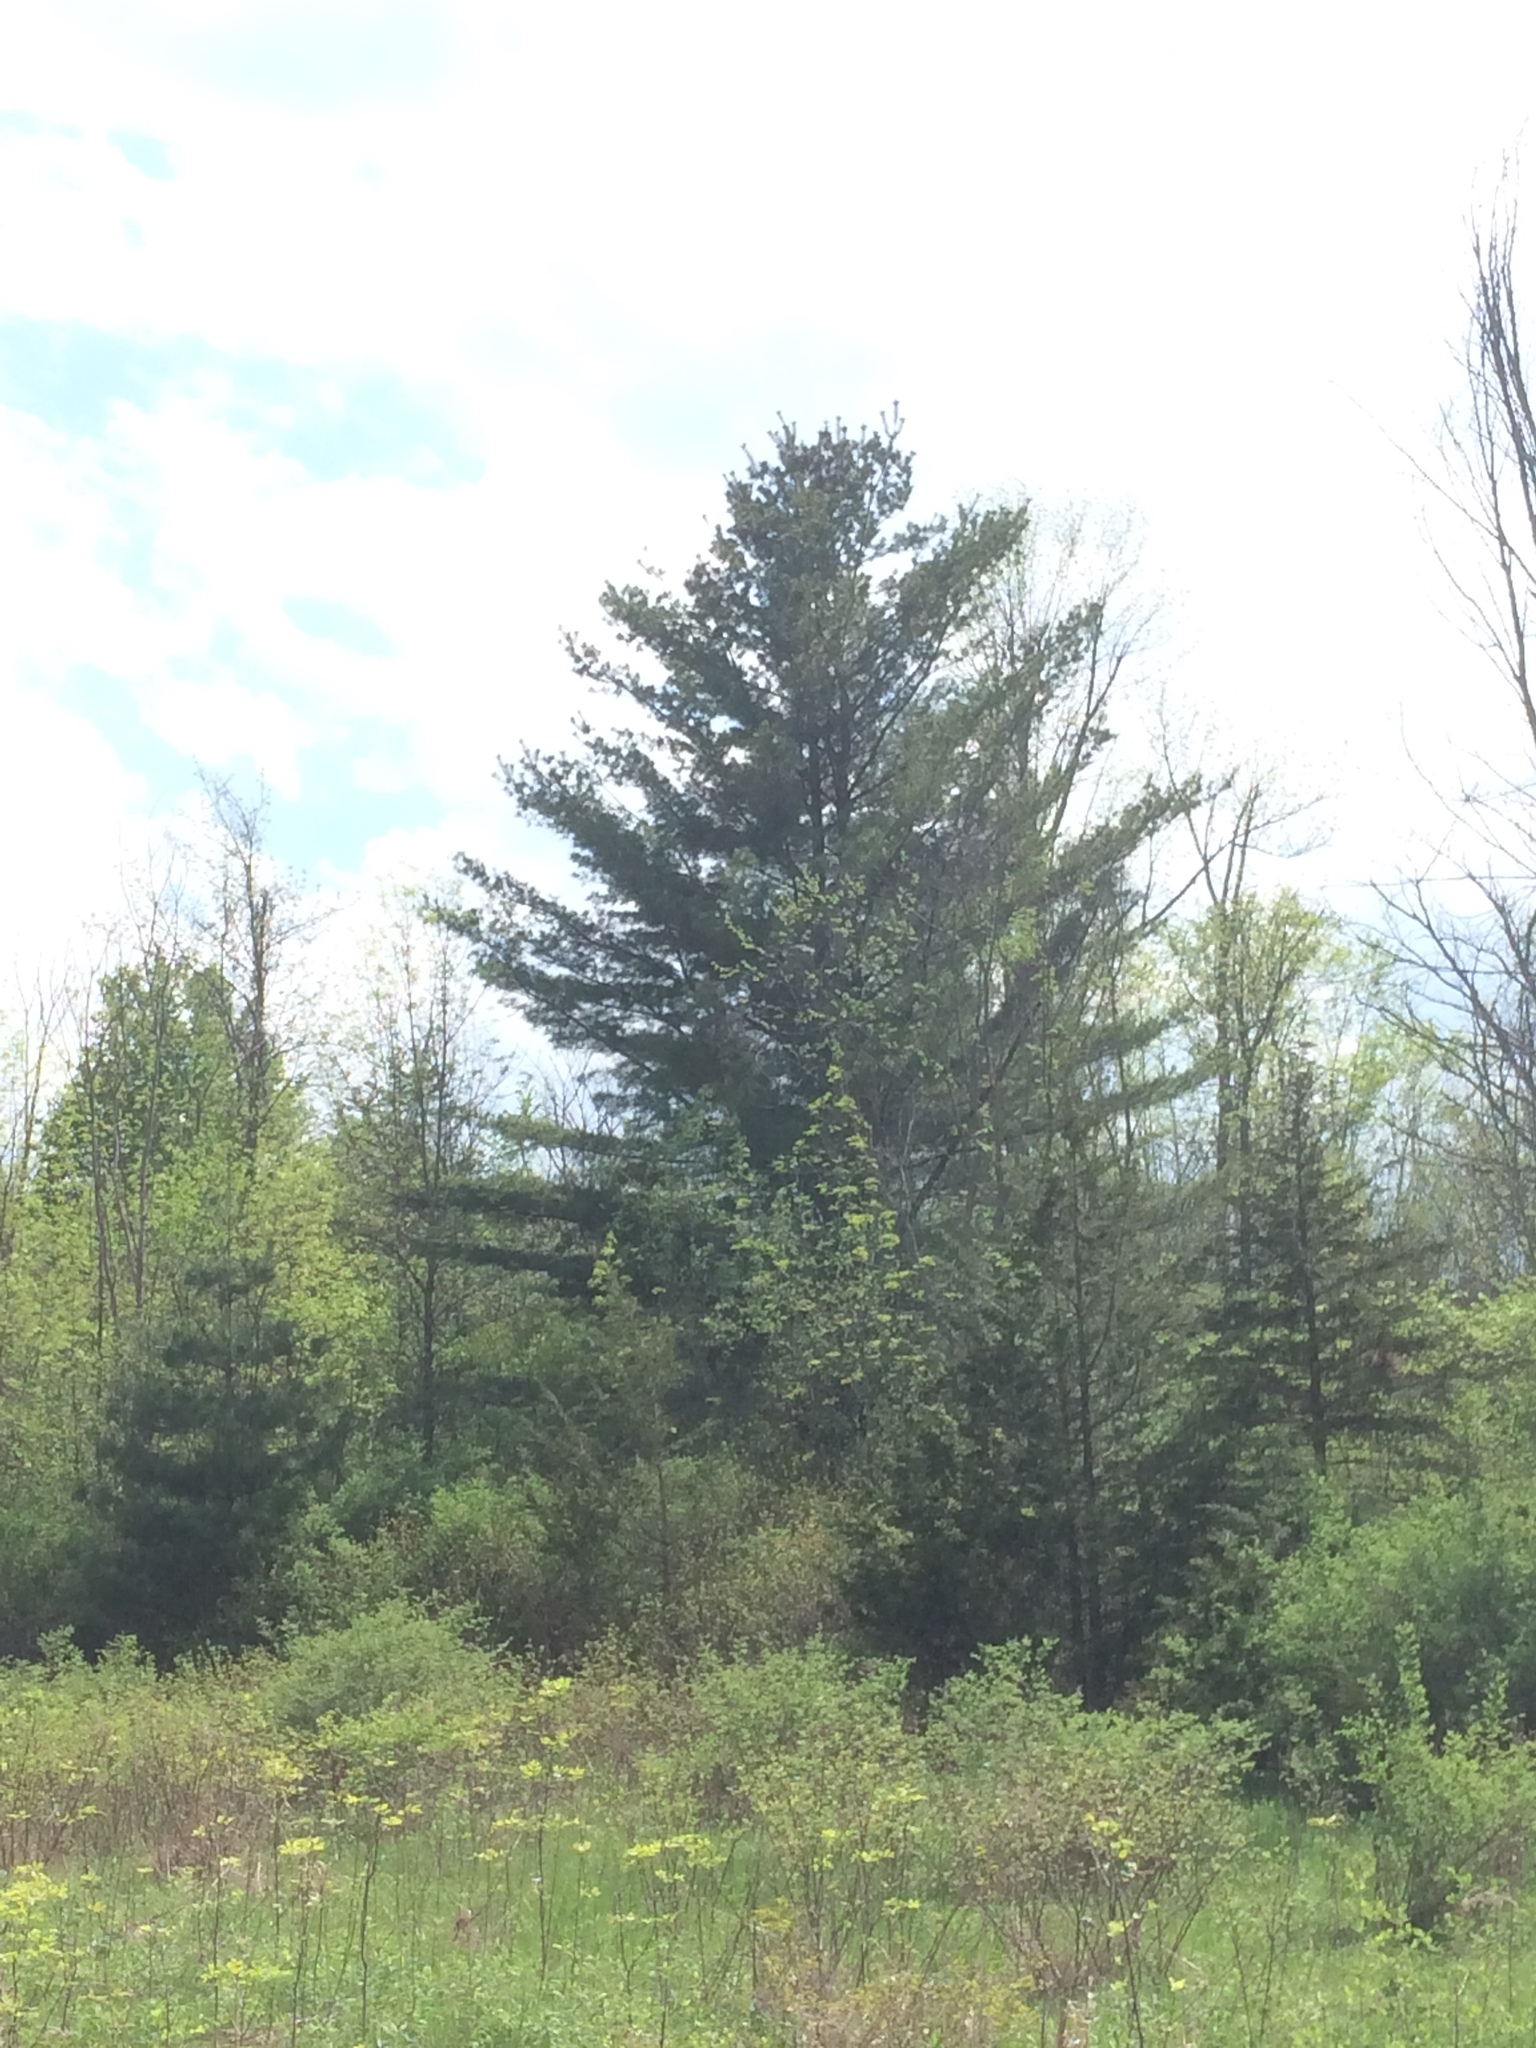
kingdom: Plantae
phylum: Tracheophyta
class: Pinopsida
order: Pinales
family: Pinaceae
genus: Pinus
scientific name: Pinus strobus
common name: Weymouth pine
